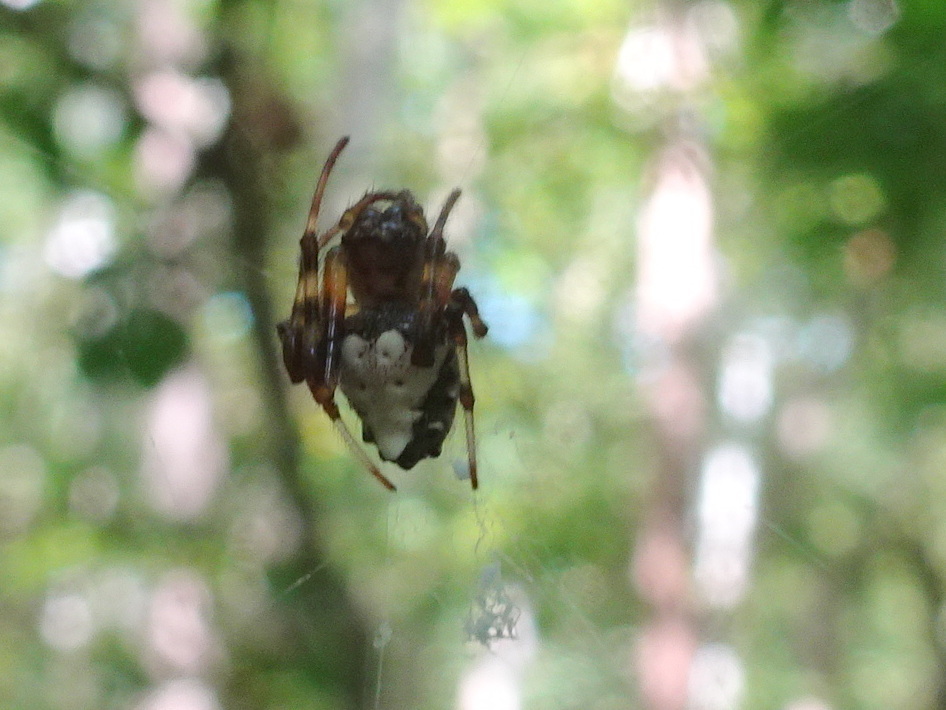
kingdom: Animalia
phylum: Arthropoda
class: Arachnida
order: Araneae
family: Araneidae
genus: Verrucosa
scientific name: Verrucosa arenata
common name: Orb weavers
